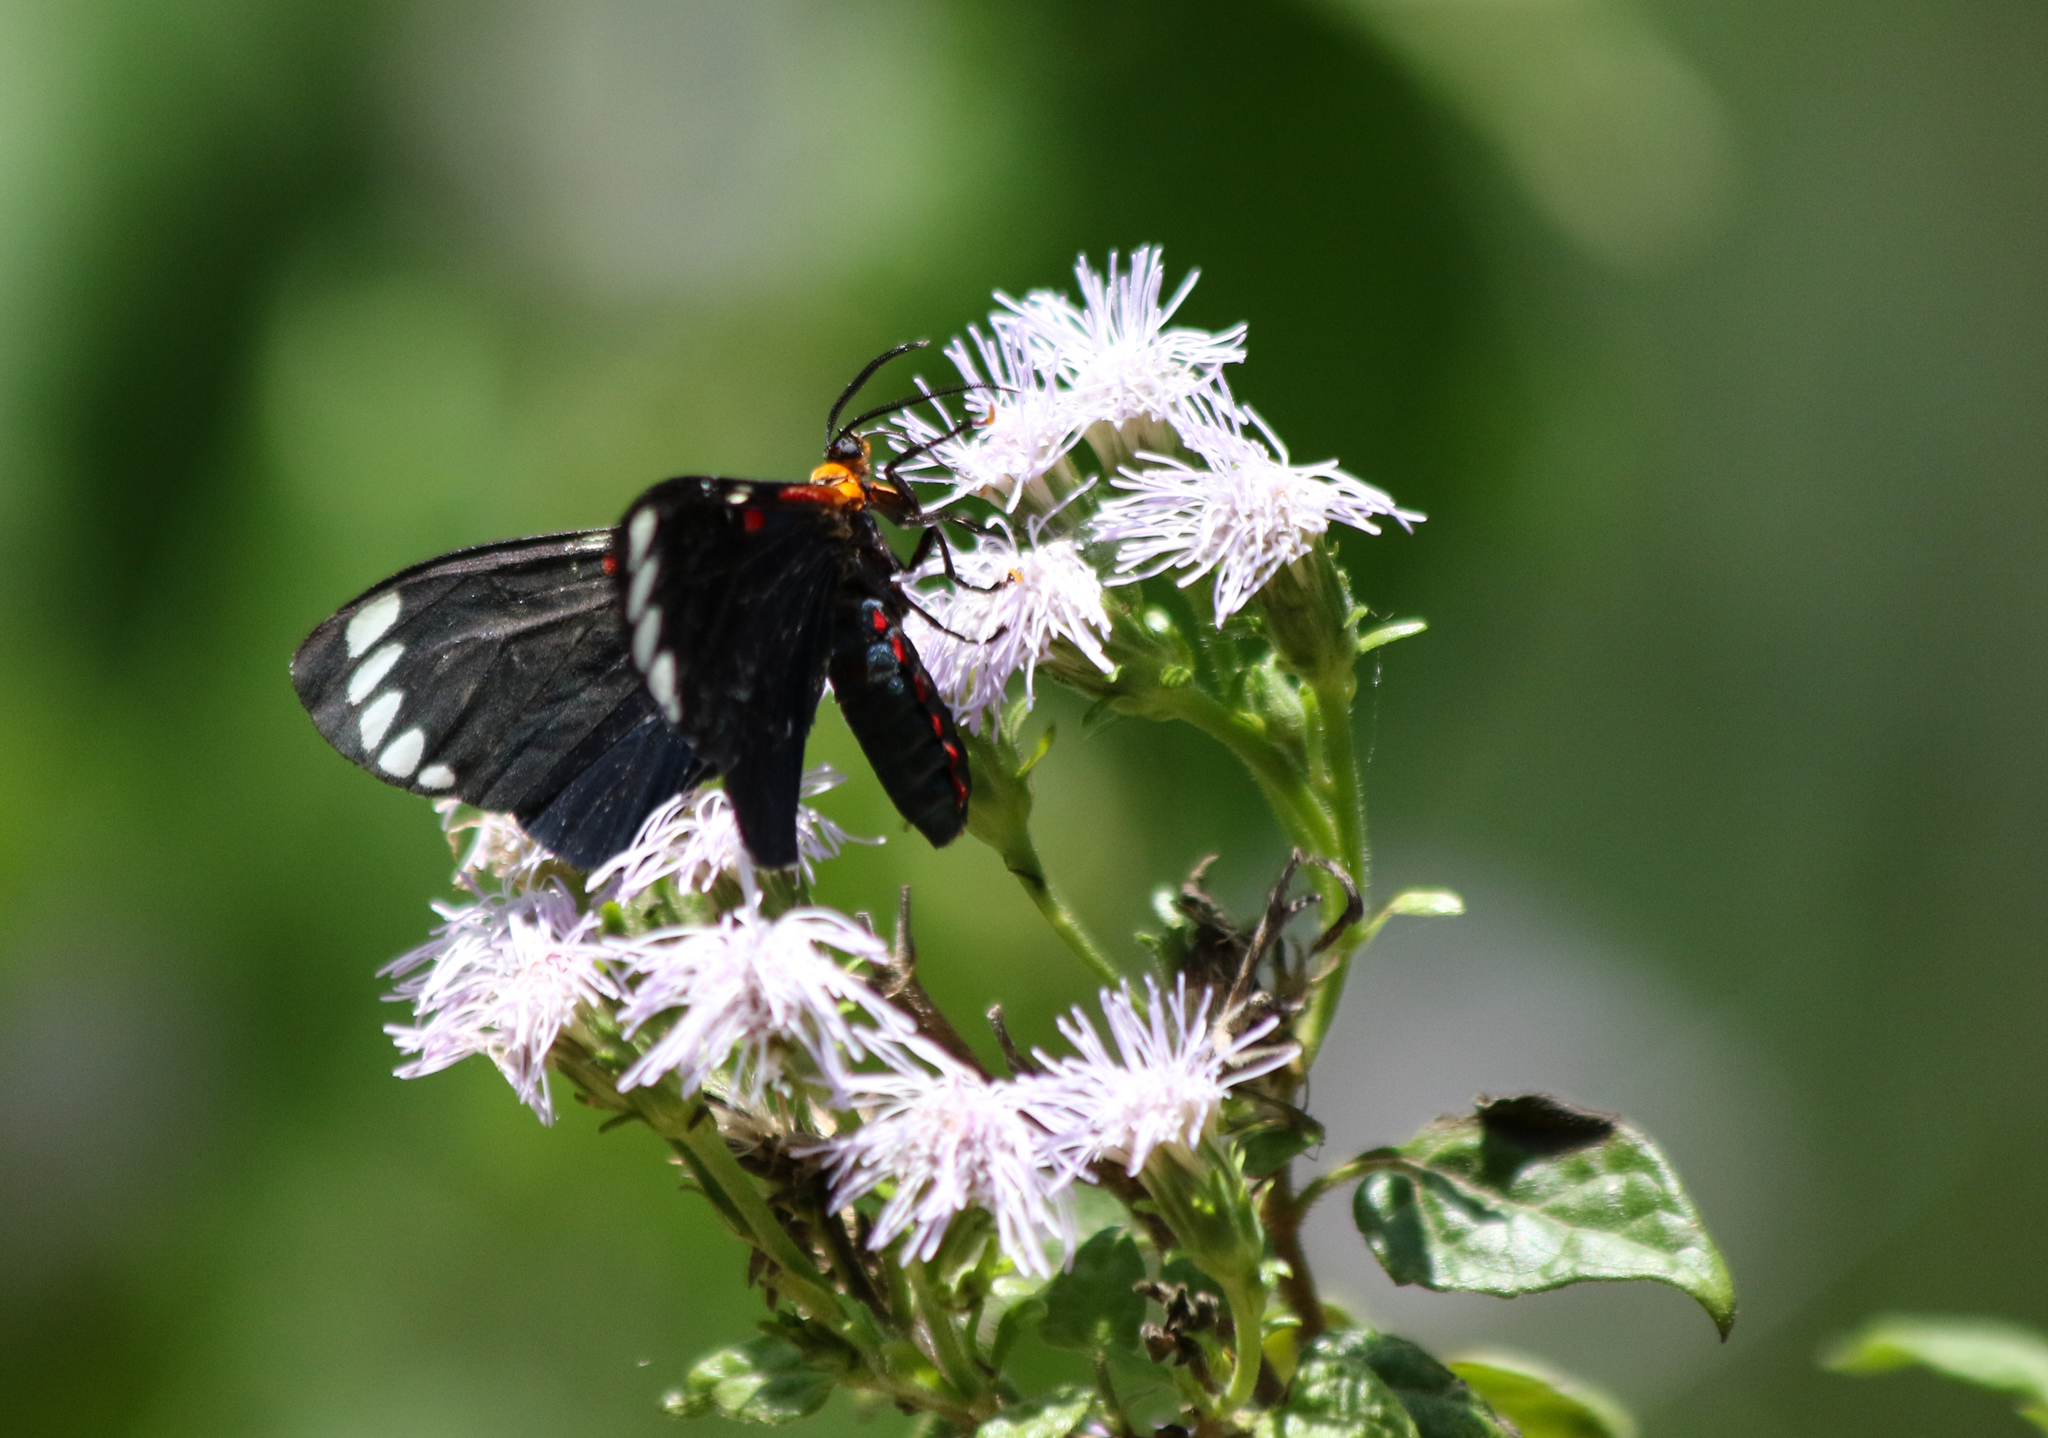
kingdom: Animalia
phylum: Arthropoda
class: Insecta
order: Lepidoptera
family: Erebidae
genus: Phaloesia
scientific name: Phaloesia saucia
